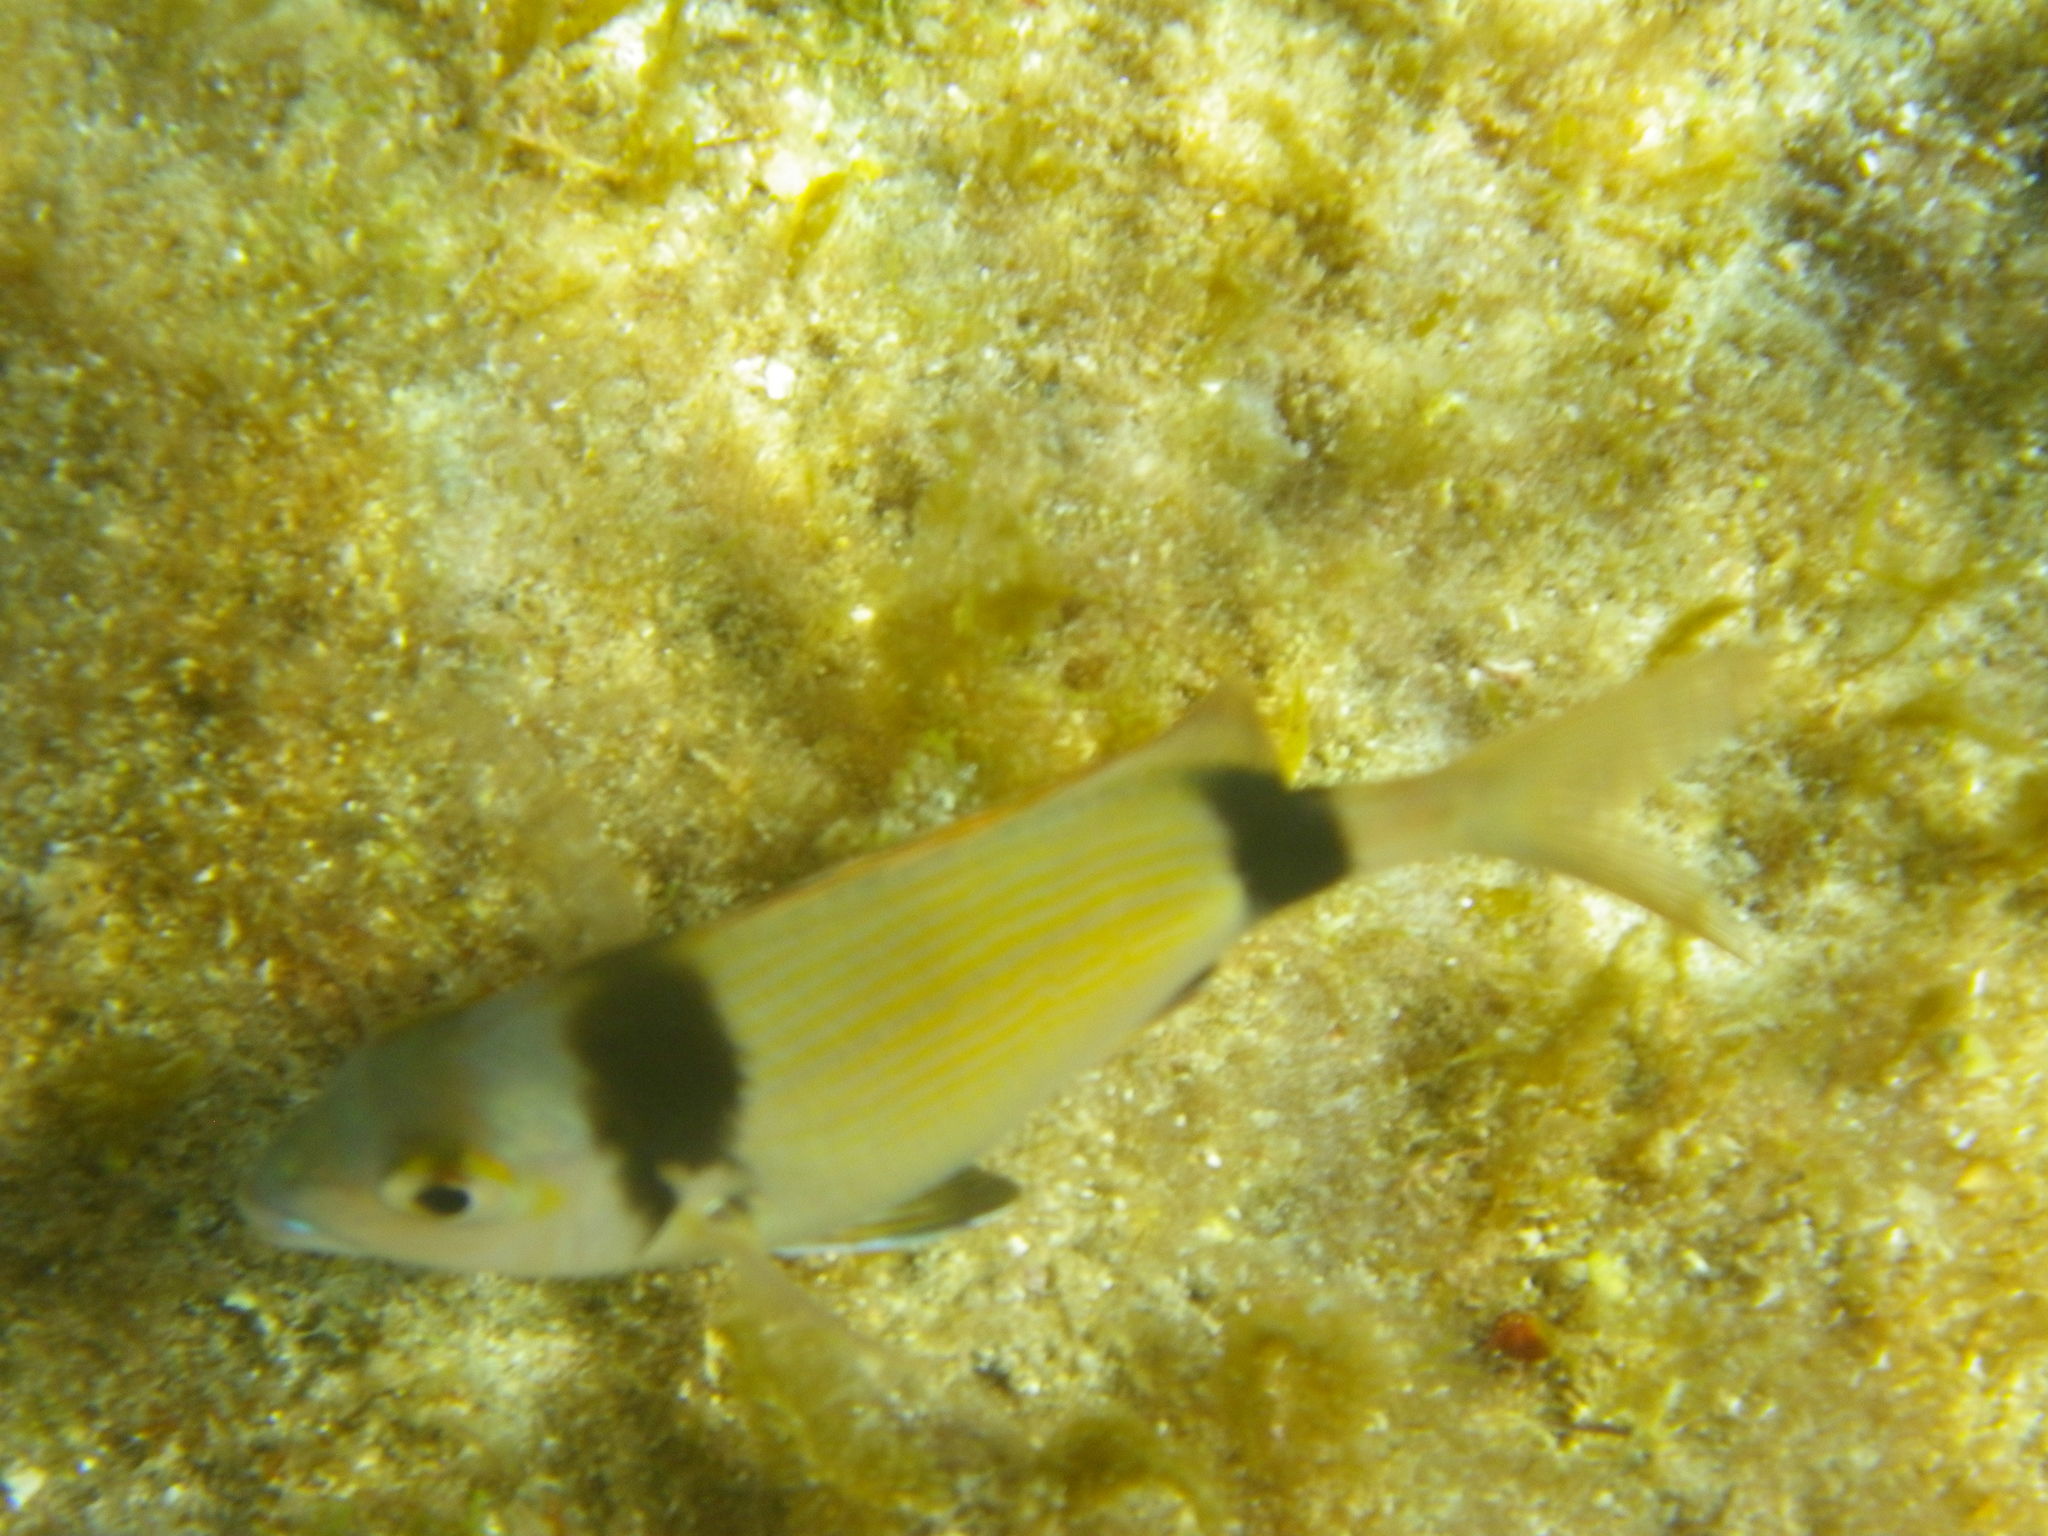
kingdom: Animalia
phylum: Chordata
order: Perciformes
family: Sparidae
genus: Diplodus
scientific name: Diplodus vulgaris
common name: Common two-banded seabream
